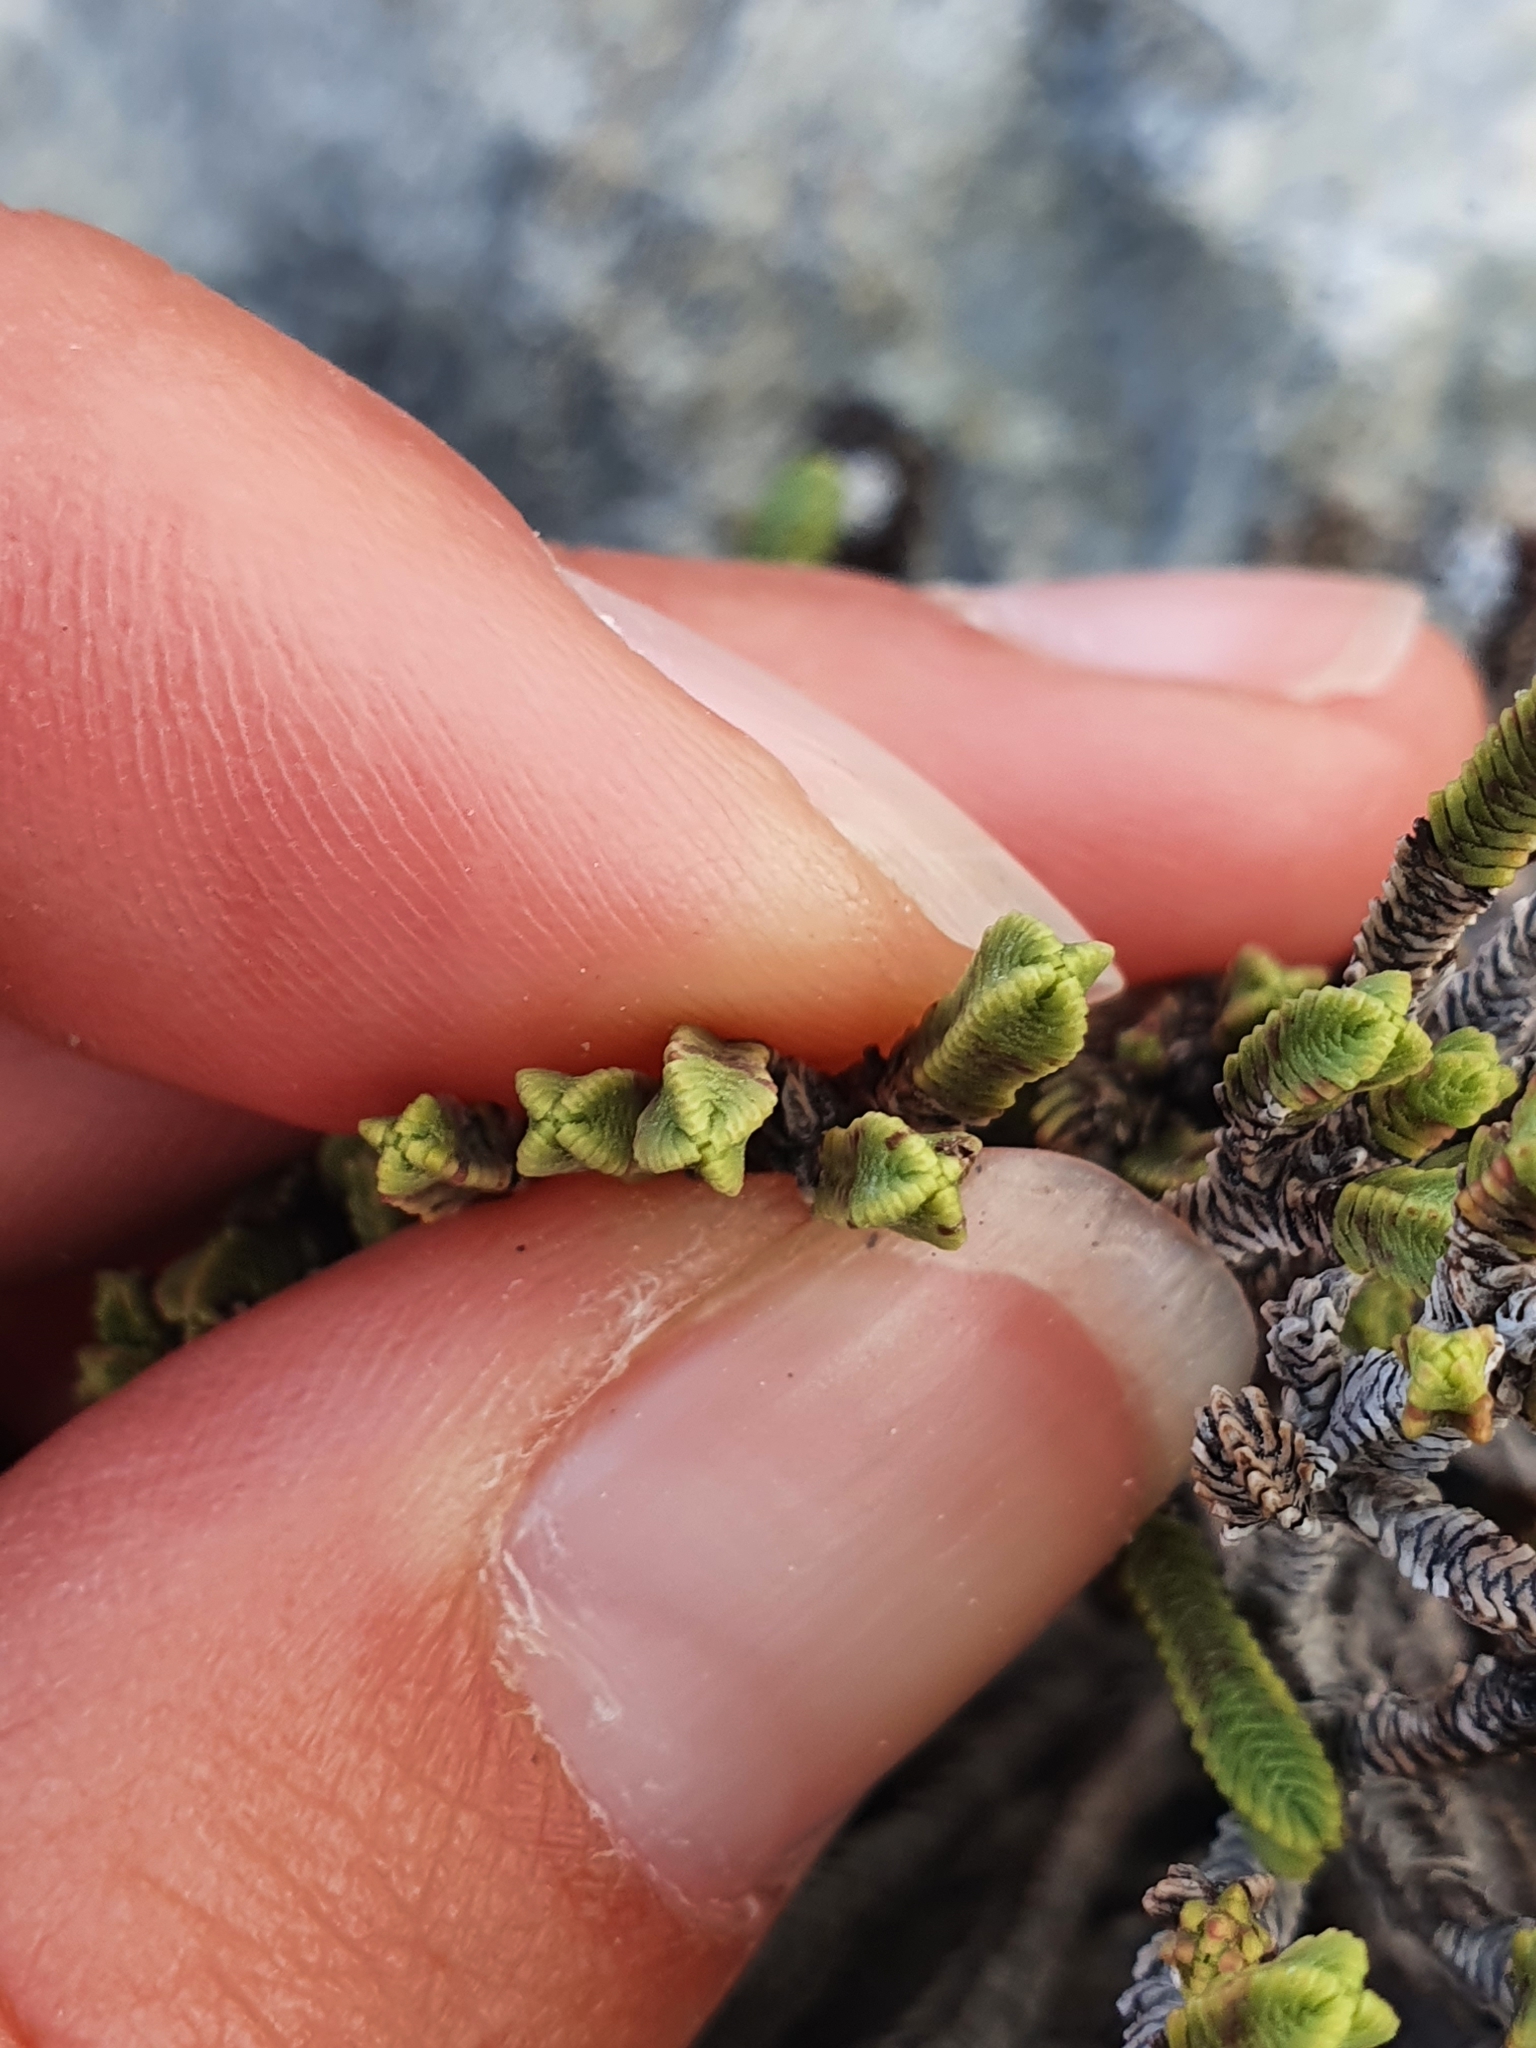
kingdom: Plantae
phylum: Tracheophyta
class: Magnoliopsida
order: Lamiales
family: Plantaginaceae
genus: Veronica
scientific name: Veronica tetrasticha
